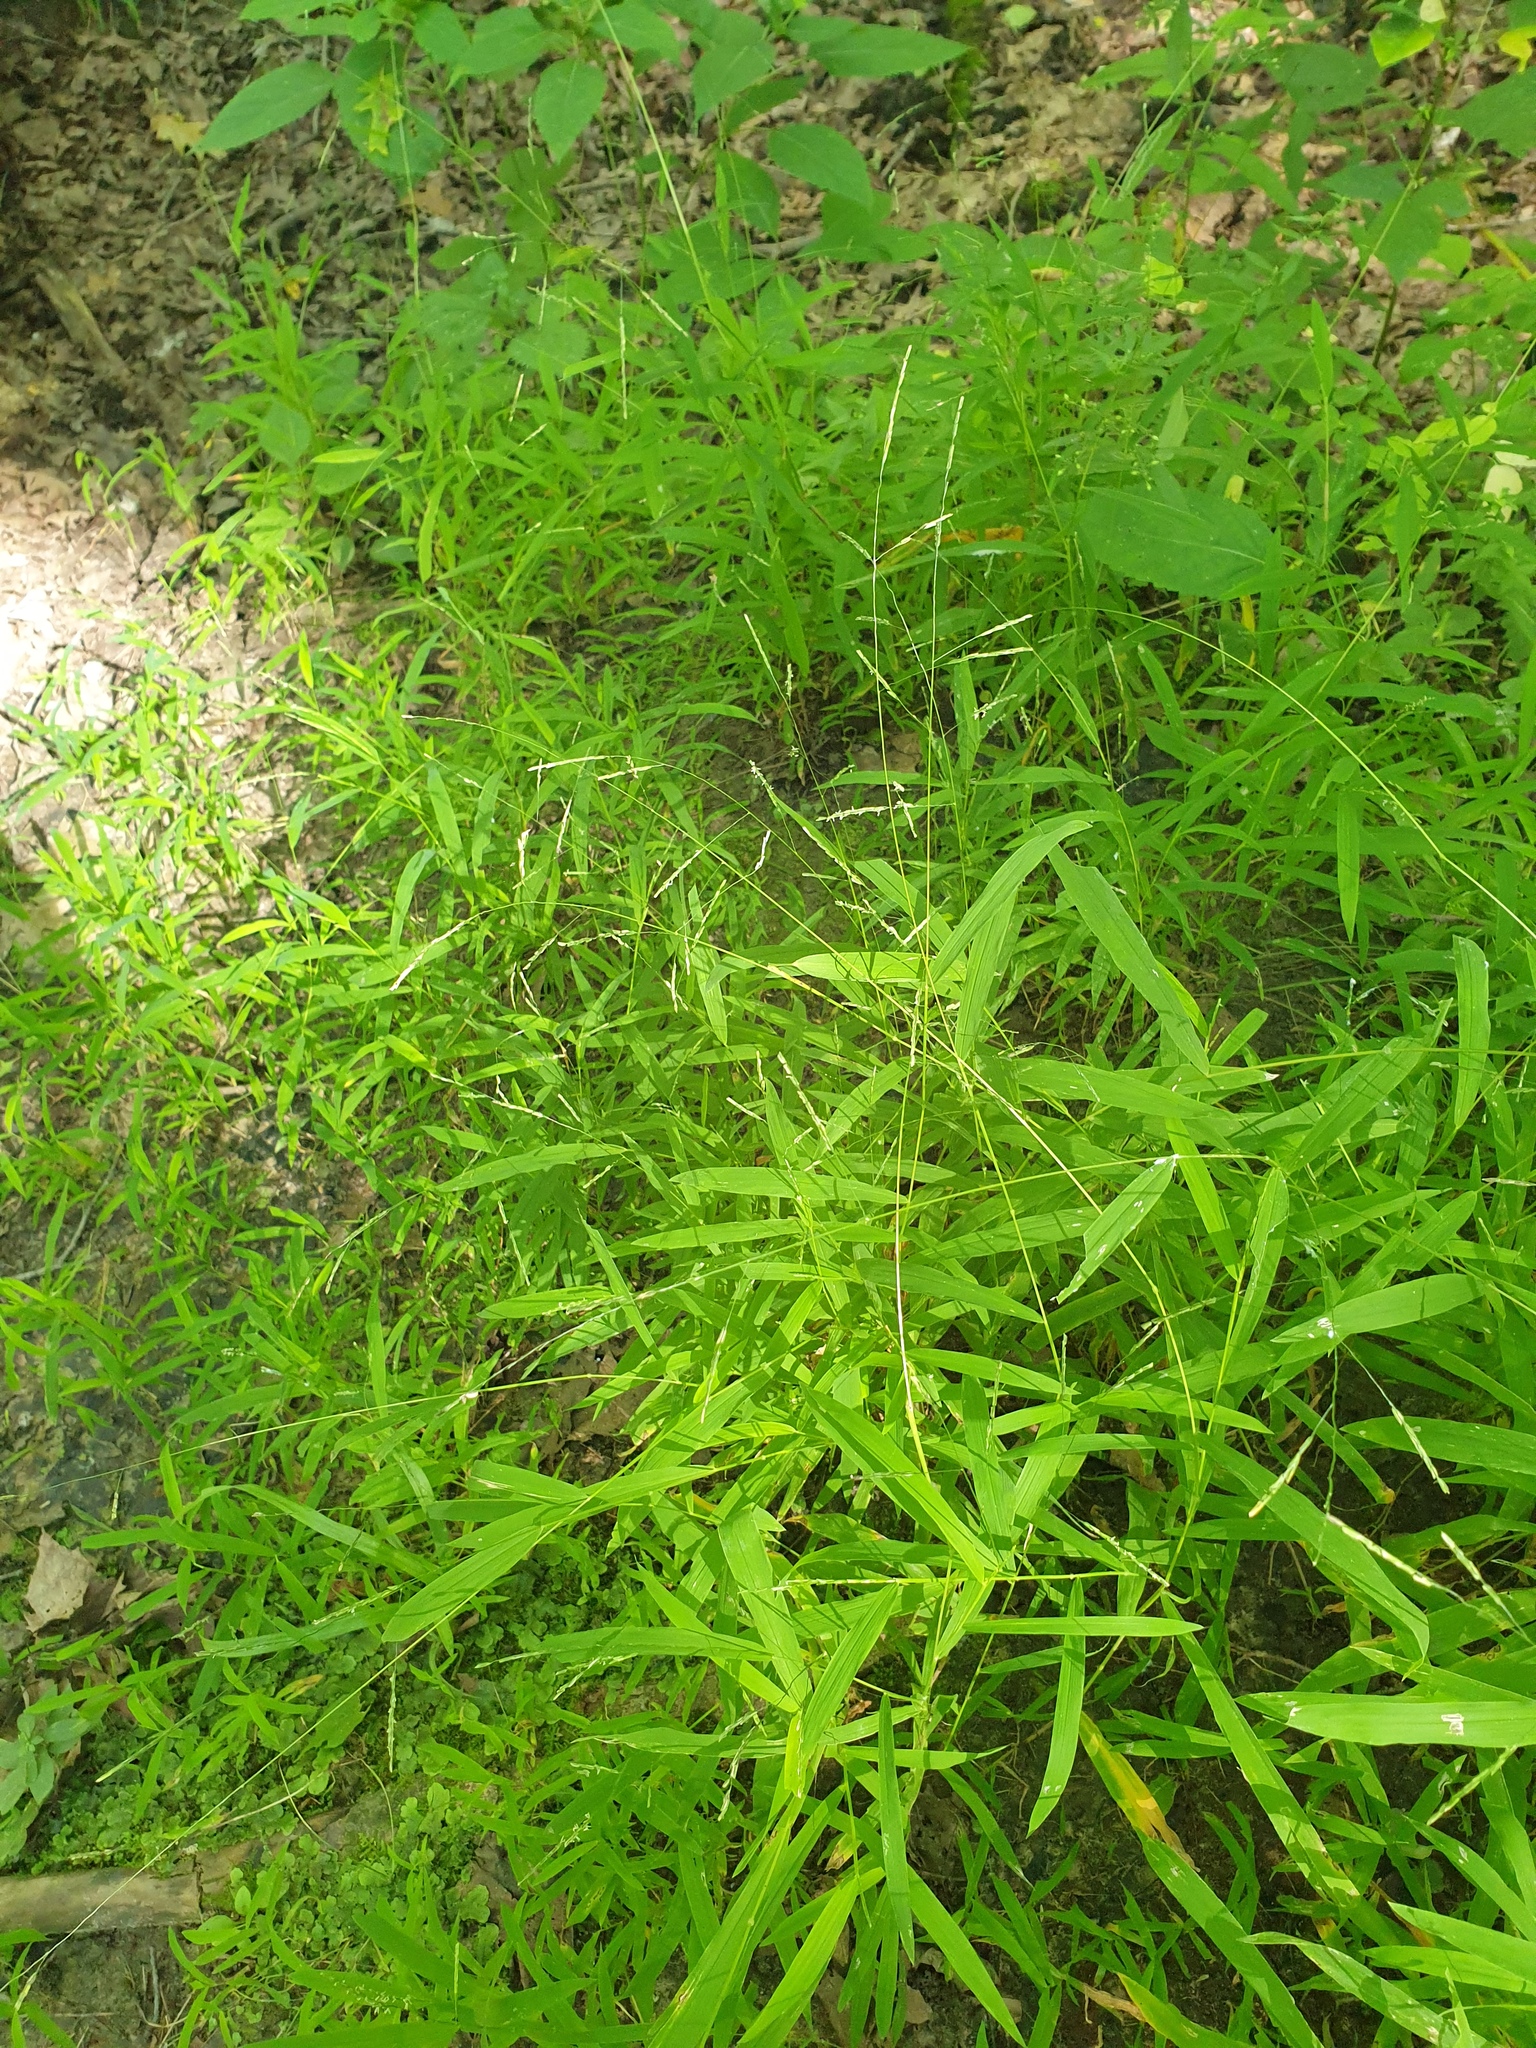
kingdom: Plantae
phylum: Tracheophyta
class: Liliopsida
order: Poales
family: Poaceae
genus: Leersia
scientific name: Leersia virginica
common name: White cutgrass
